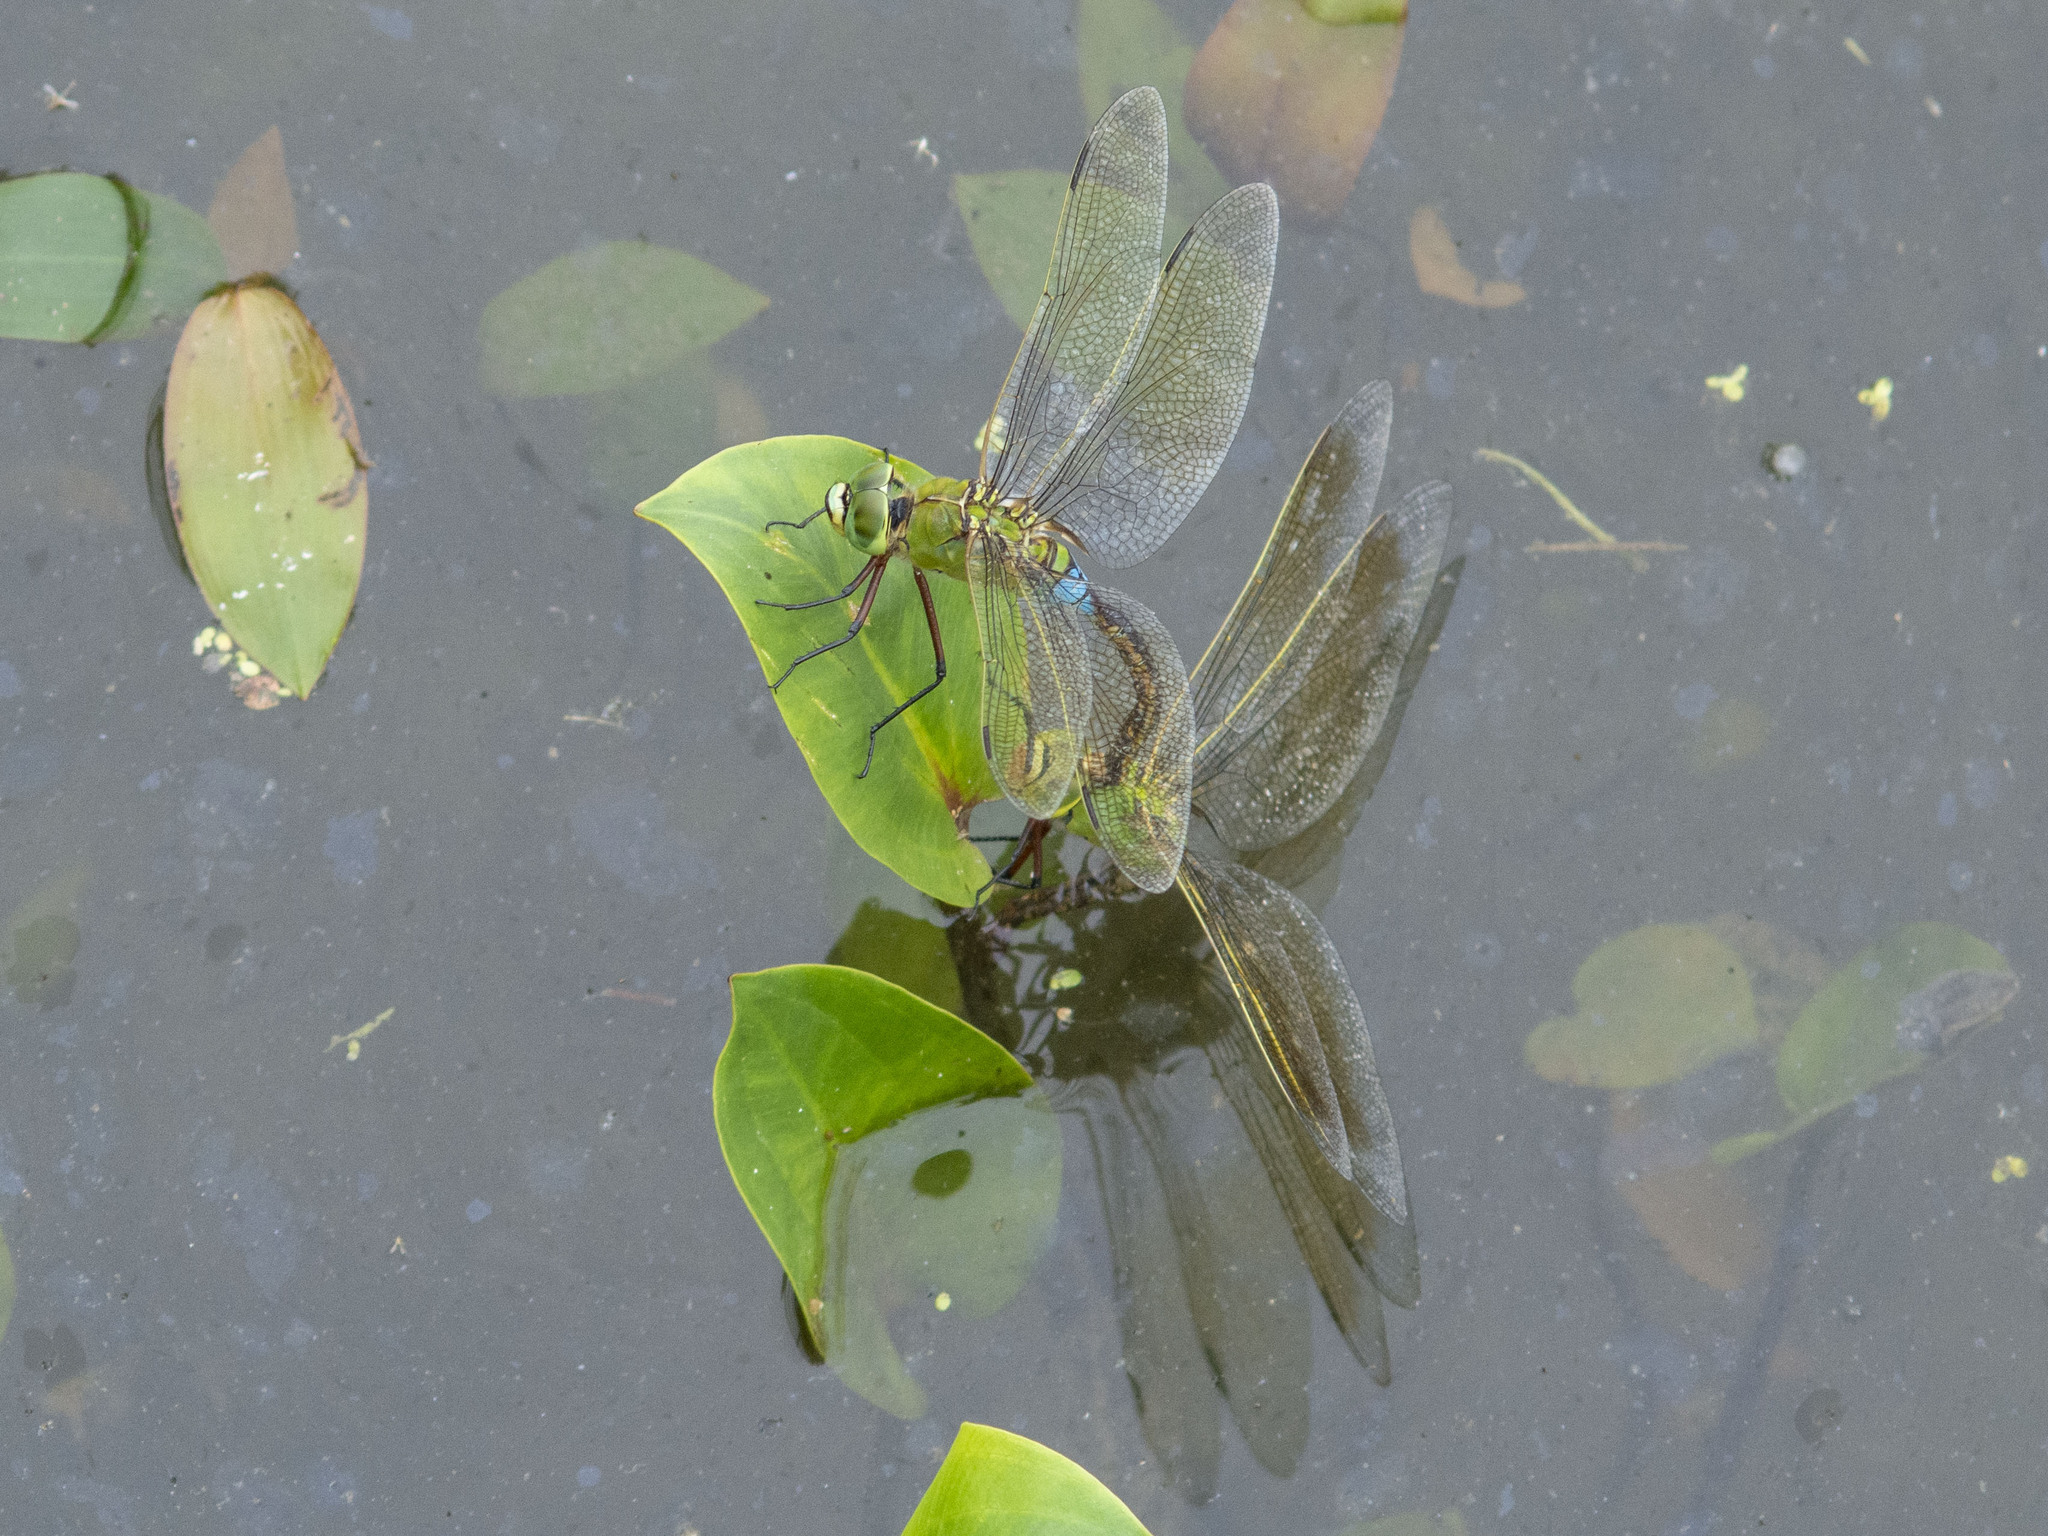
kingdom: Animalia
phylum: Arthropoda
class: Insecta
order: Odonata
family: Aeshnidae
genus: Anax
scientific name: Anax julius
